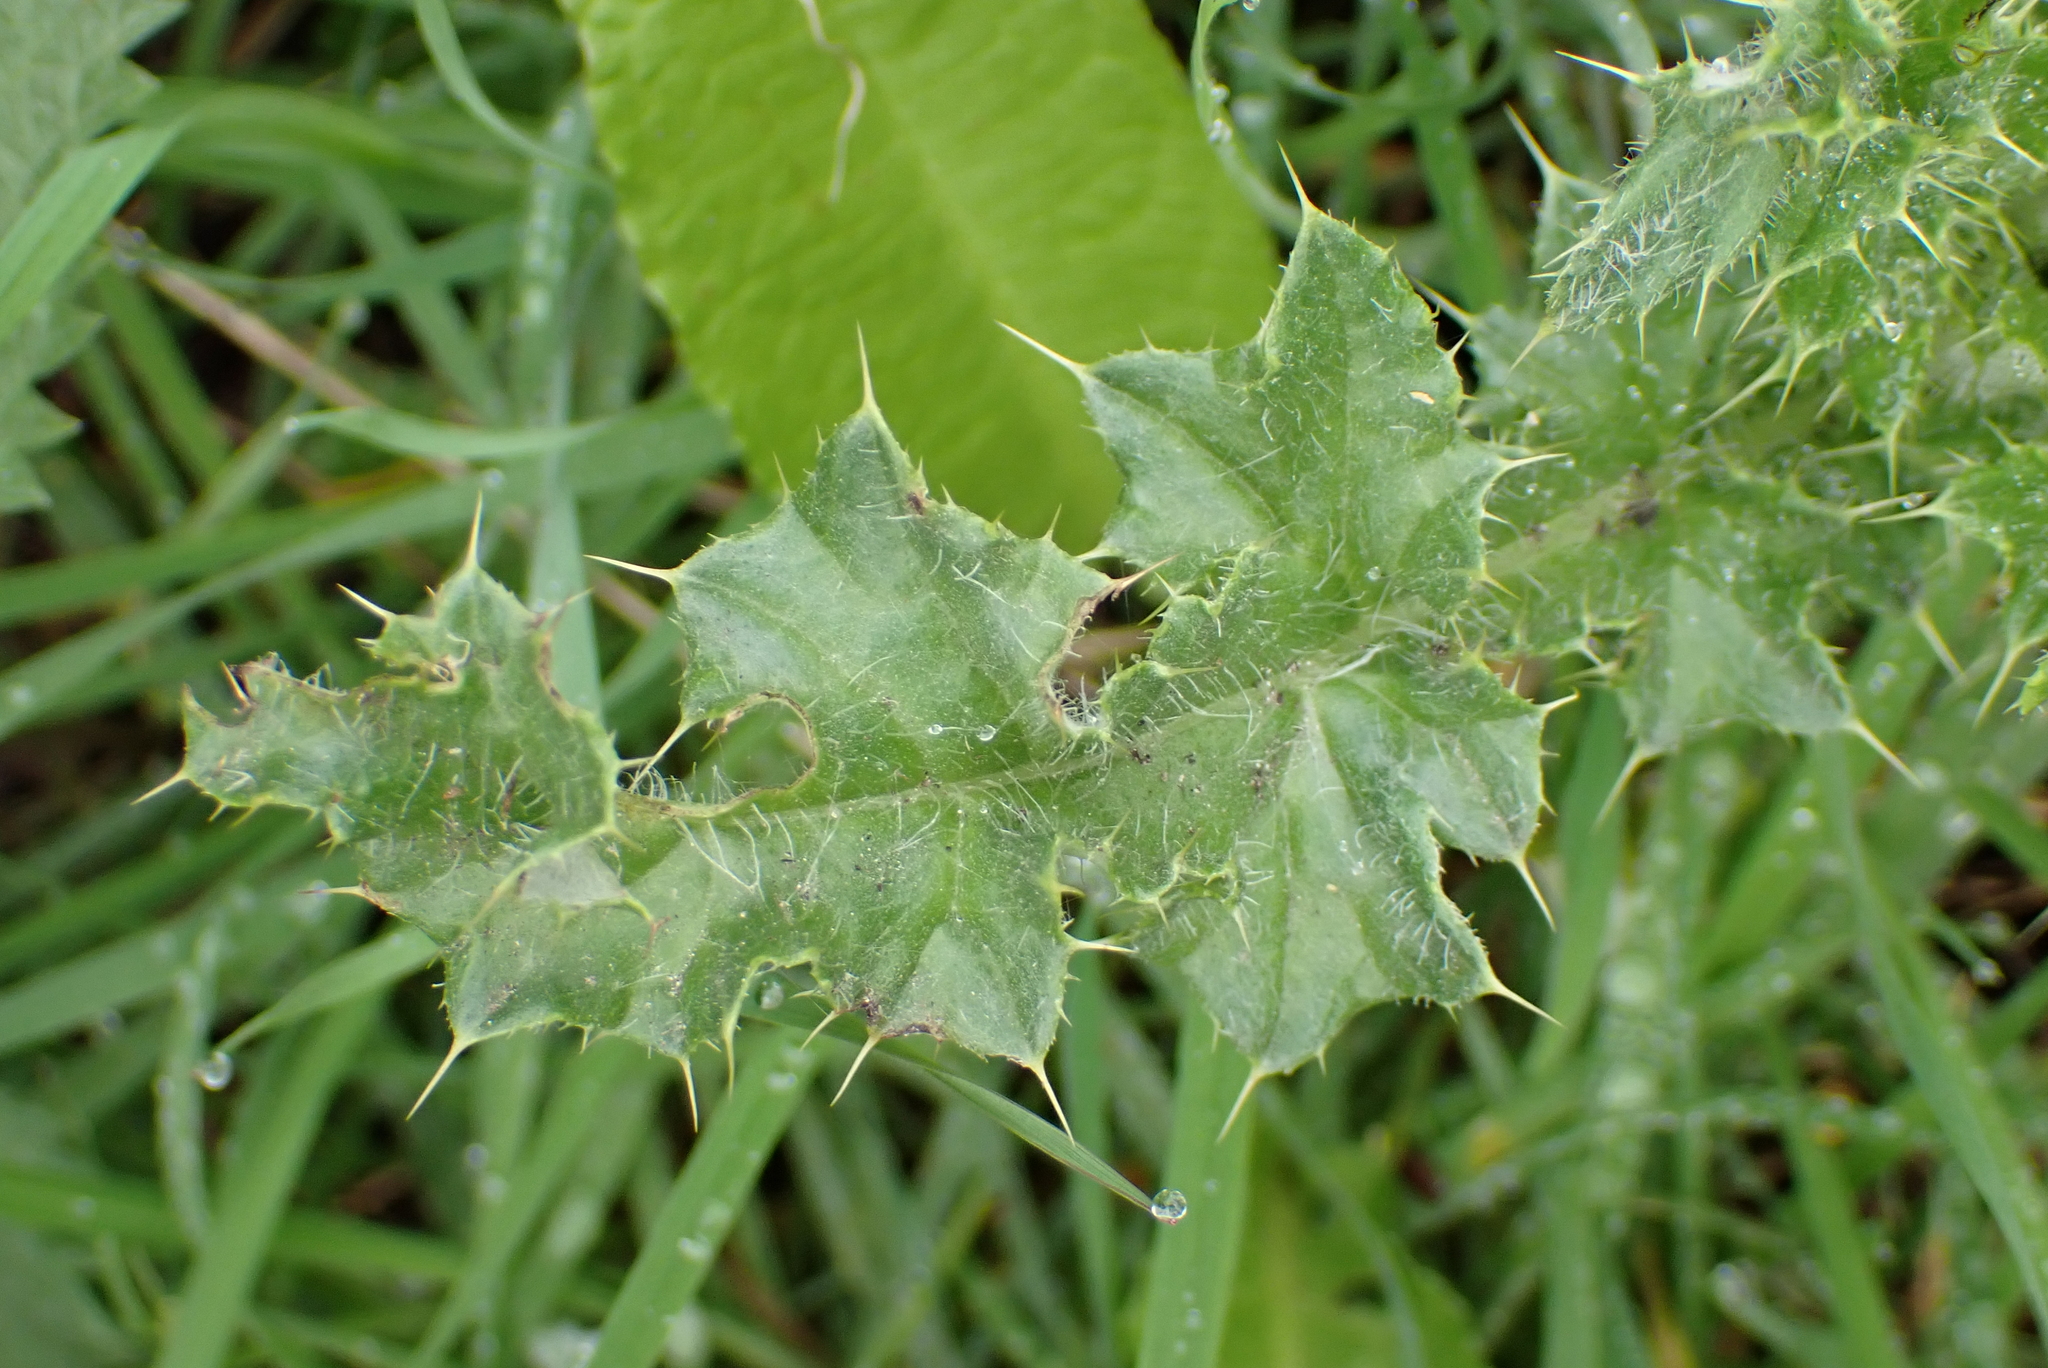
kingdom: Plantae
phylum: Tracheophyta
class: Magnoliopsida
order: Asterales
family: Asteraceae
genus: Cirsium
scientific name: Cirsium arvense
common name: Creeping thistle
